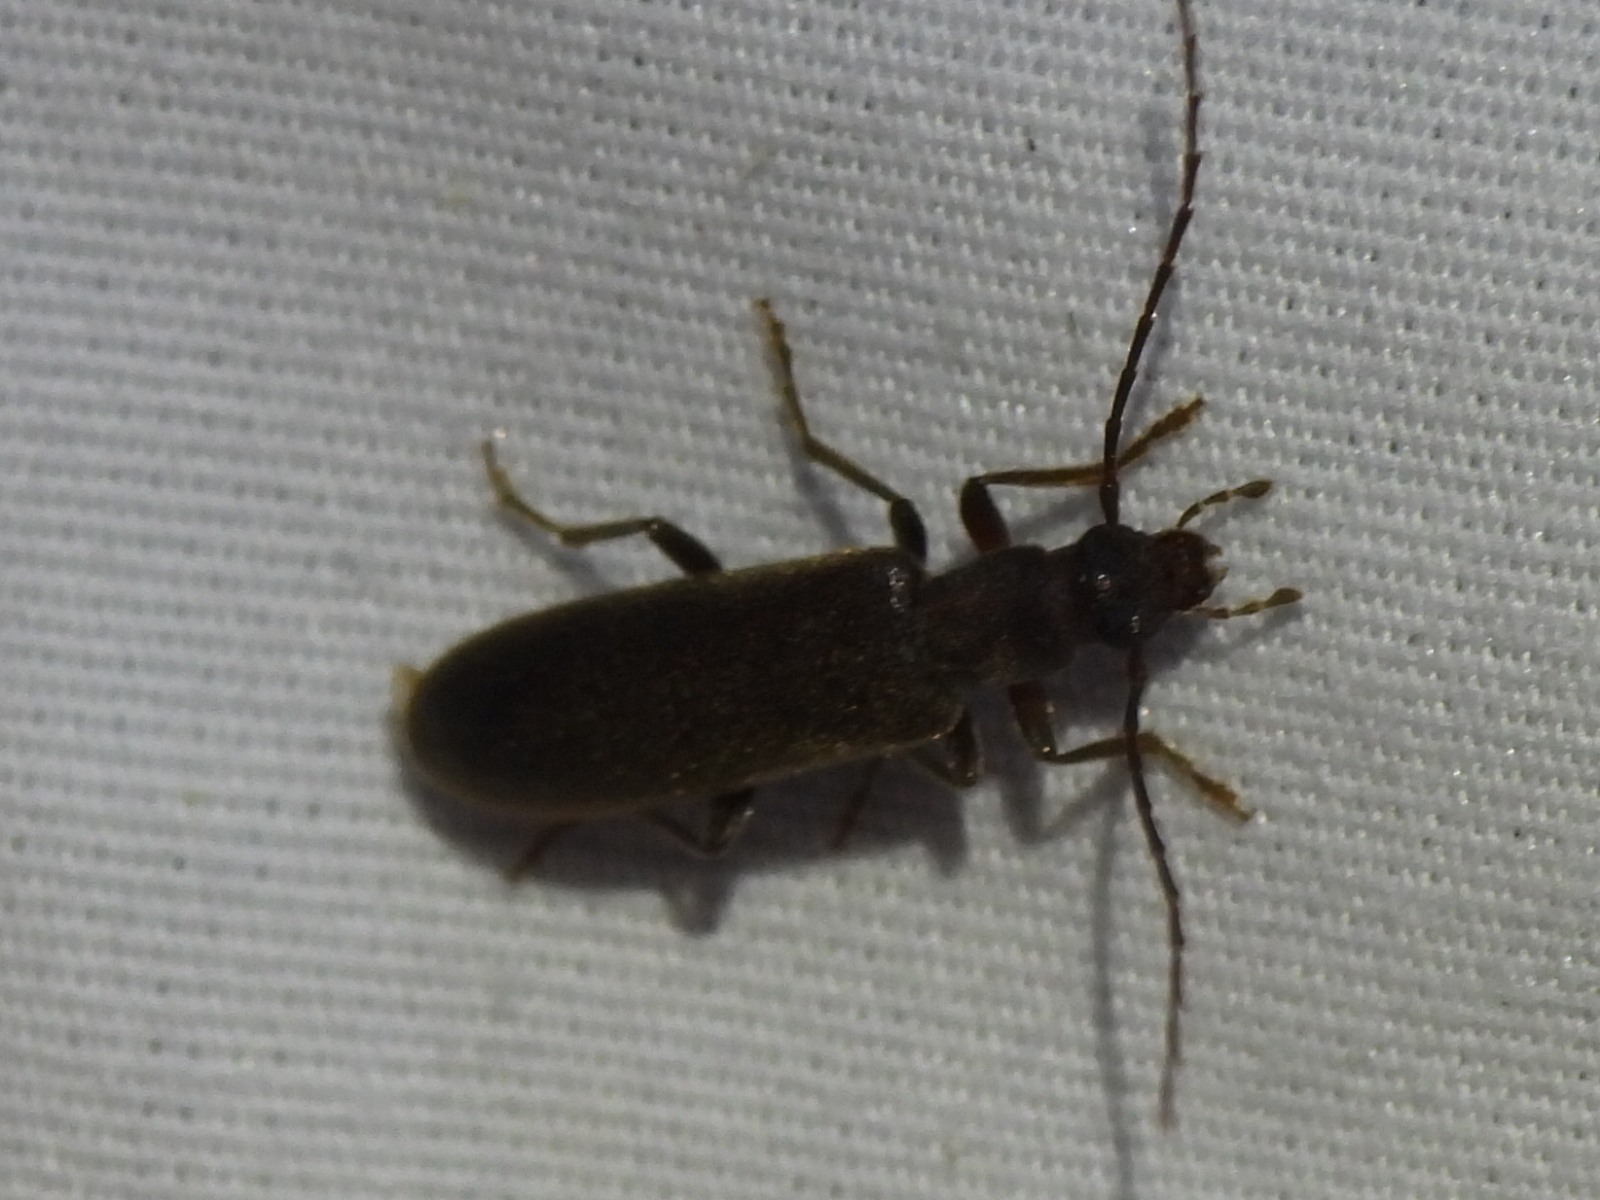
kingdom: Animalia
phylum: Arthropoda
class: Insecta
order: Coleoptera
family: Oedemeridae
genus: Sparedrus
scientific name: Sparedrus aspersus
